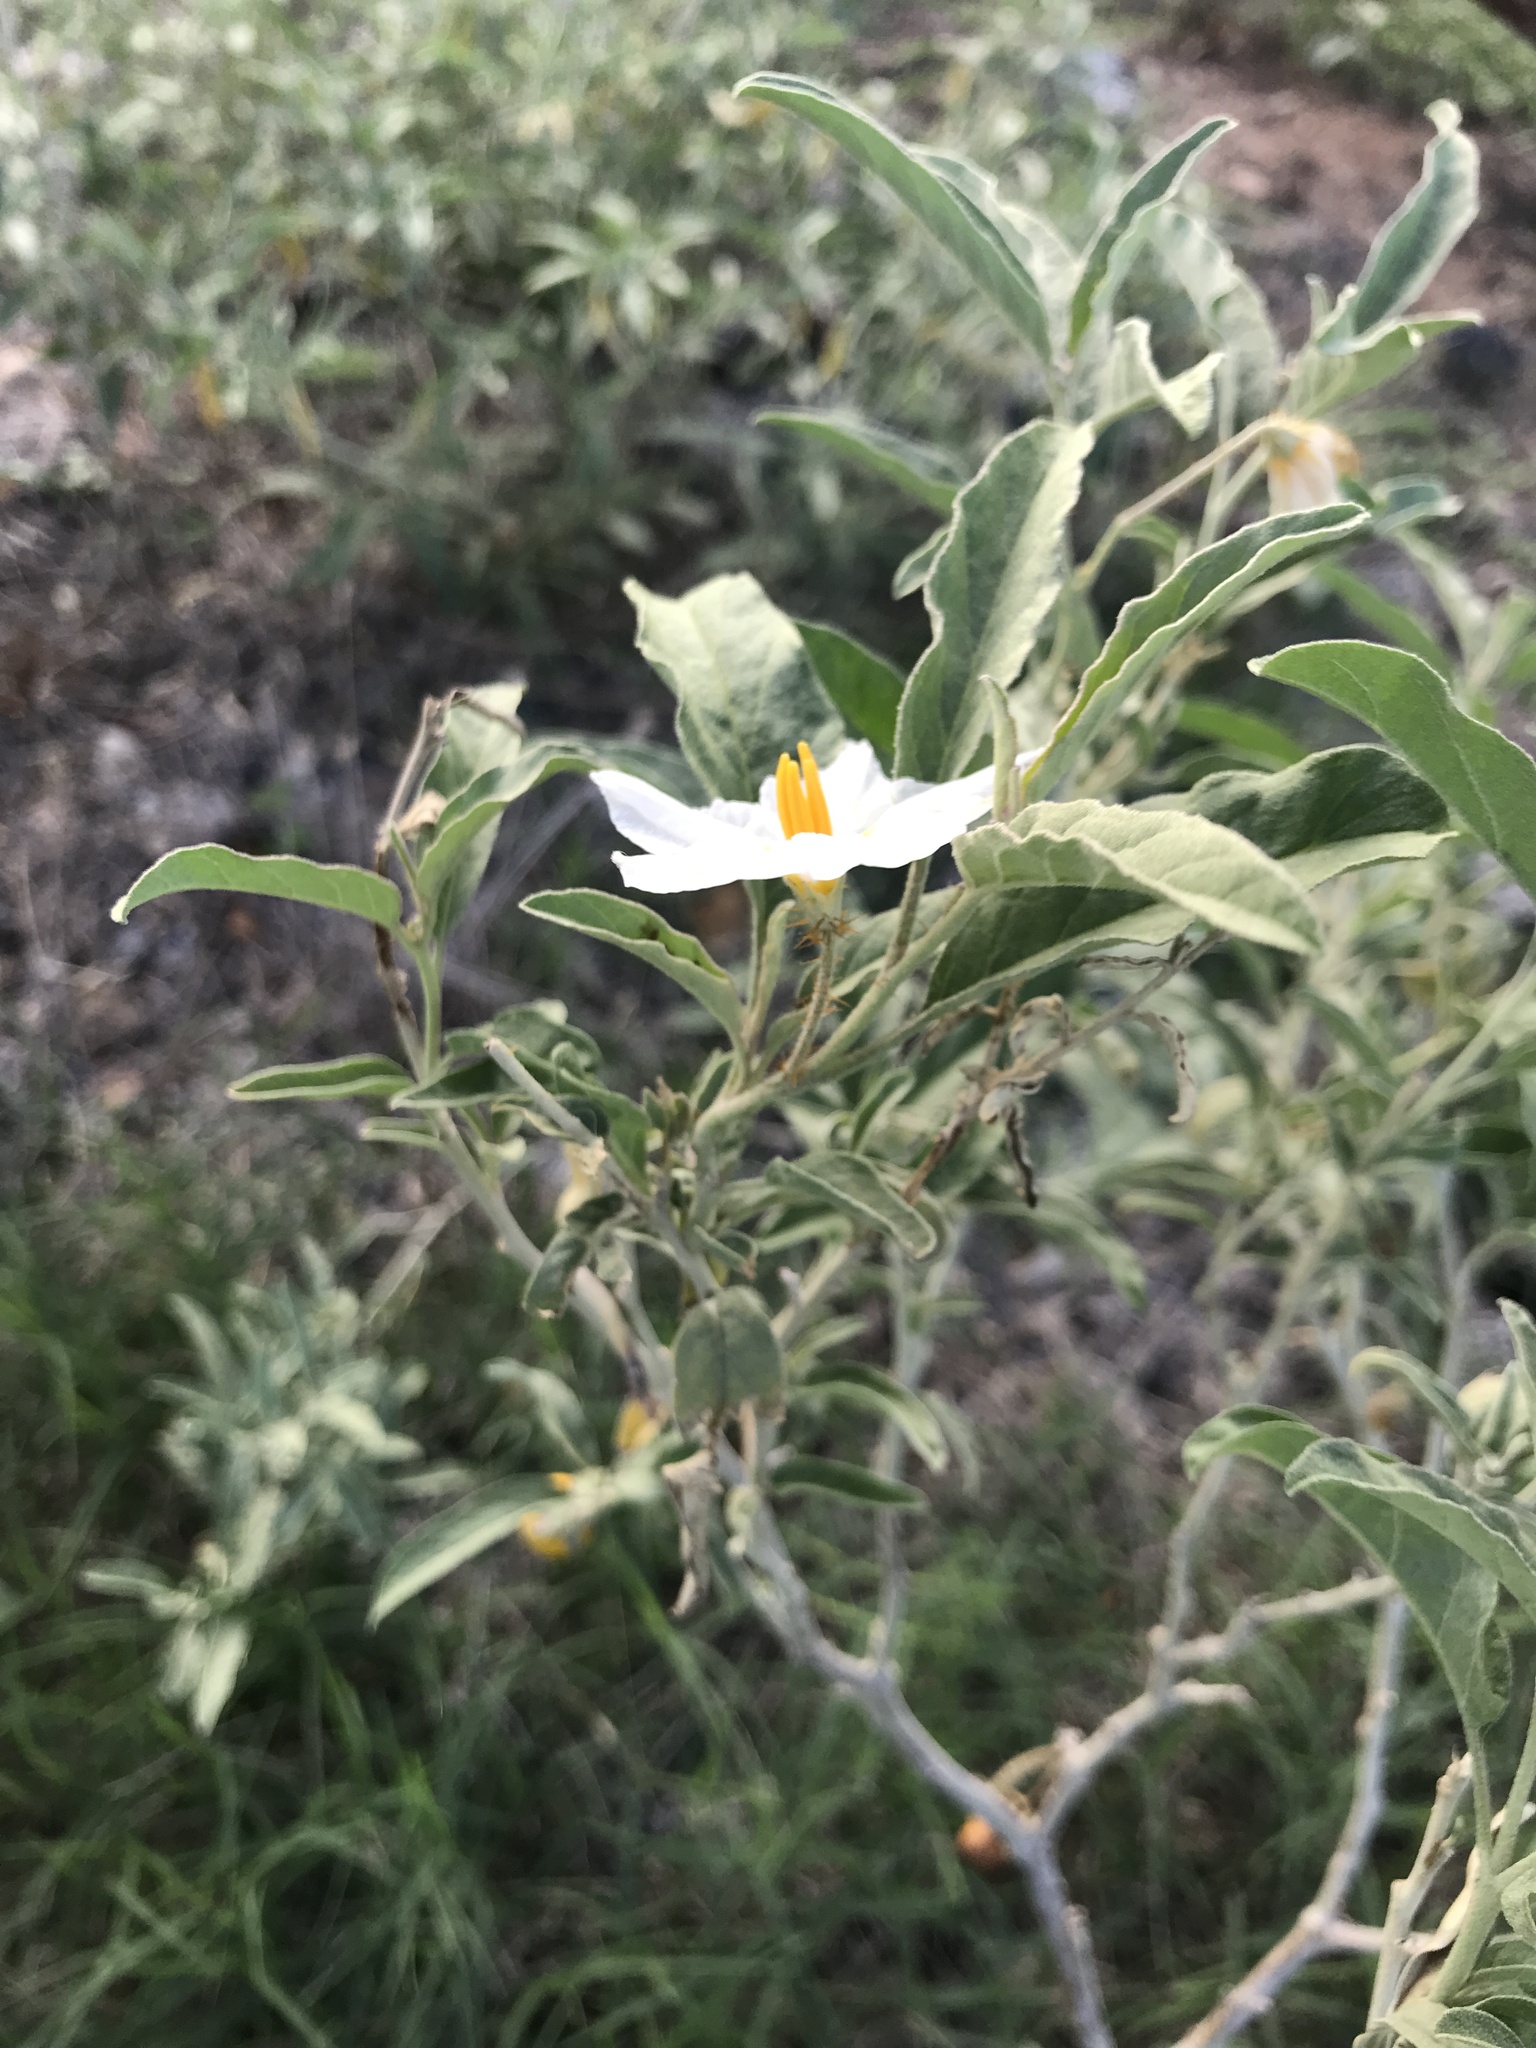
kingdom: Plantae
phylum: Tracheophyta
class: Magnoliopsida
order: Solanales
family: Solanaceae
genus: Solanum
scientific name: Solanum elaeagnifolium
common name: Silverleaf nightshade
